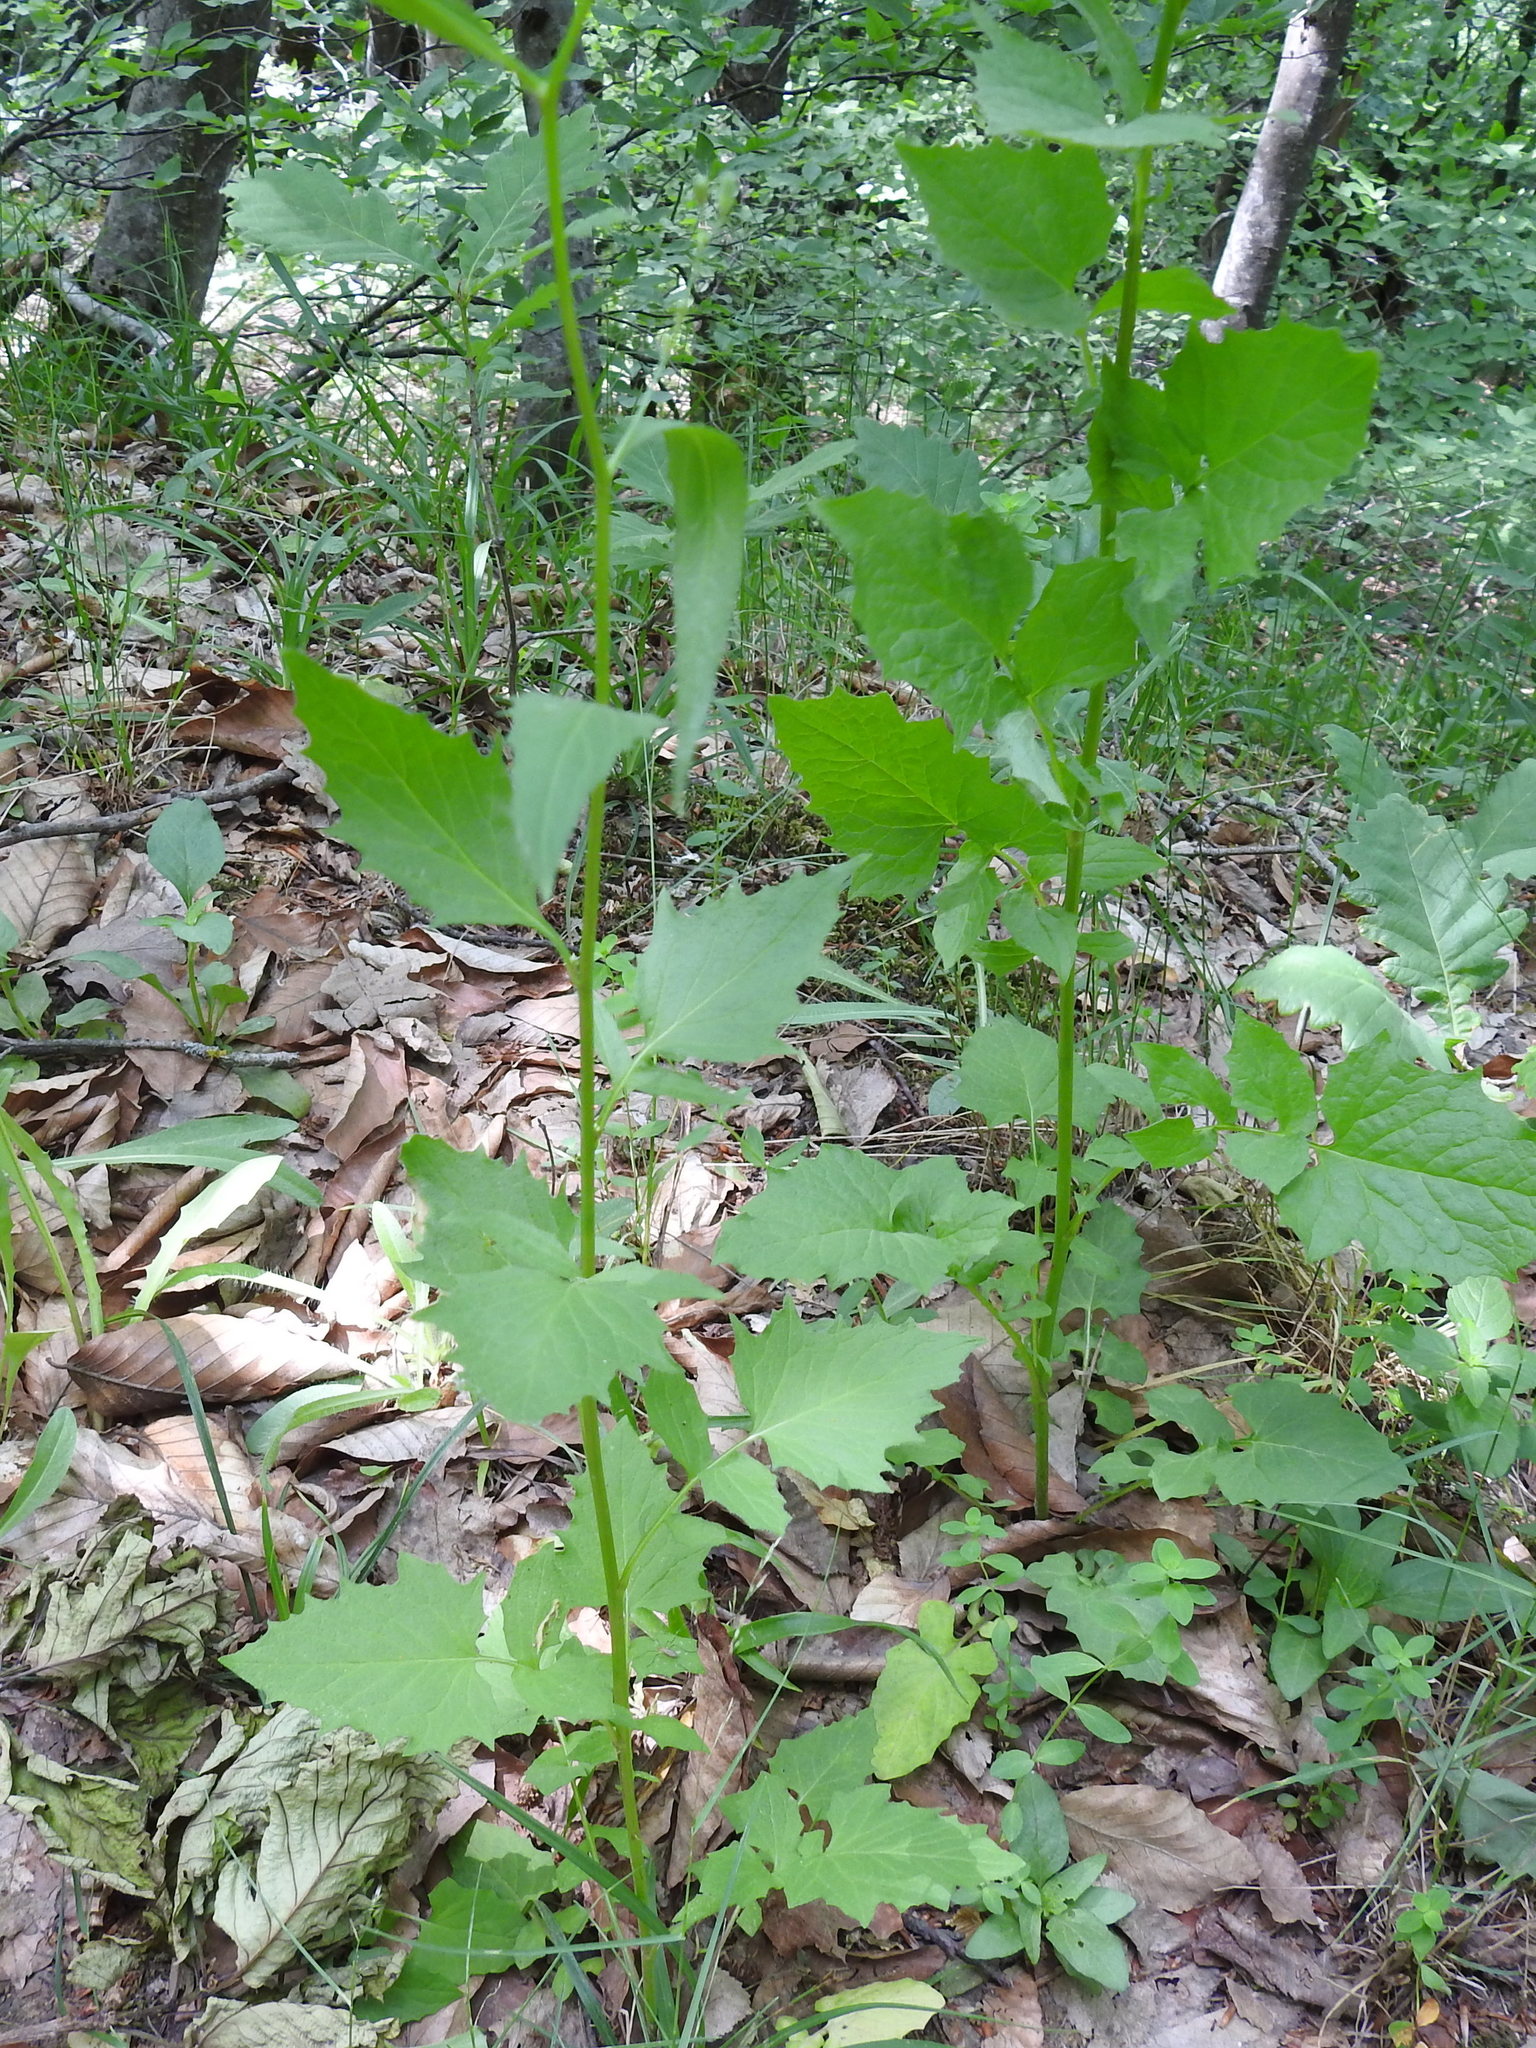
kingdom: Plantae
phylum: Tracheophyta
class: Magnoliopsida
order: Asterales
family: Asteraceae
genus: Lapsana
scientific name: Lapsana communis
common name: Nipplewort
